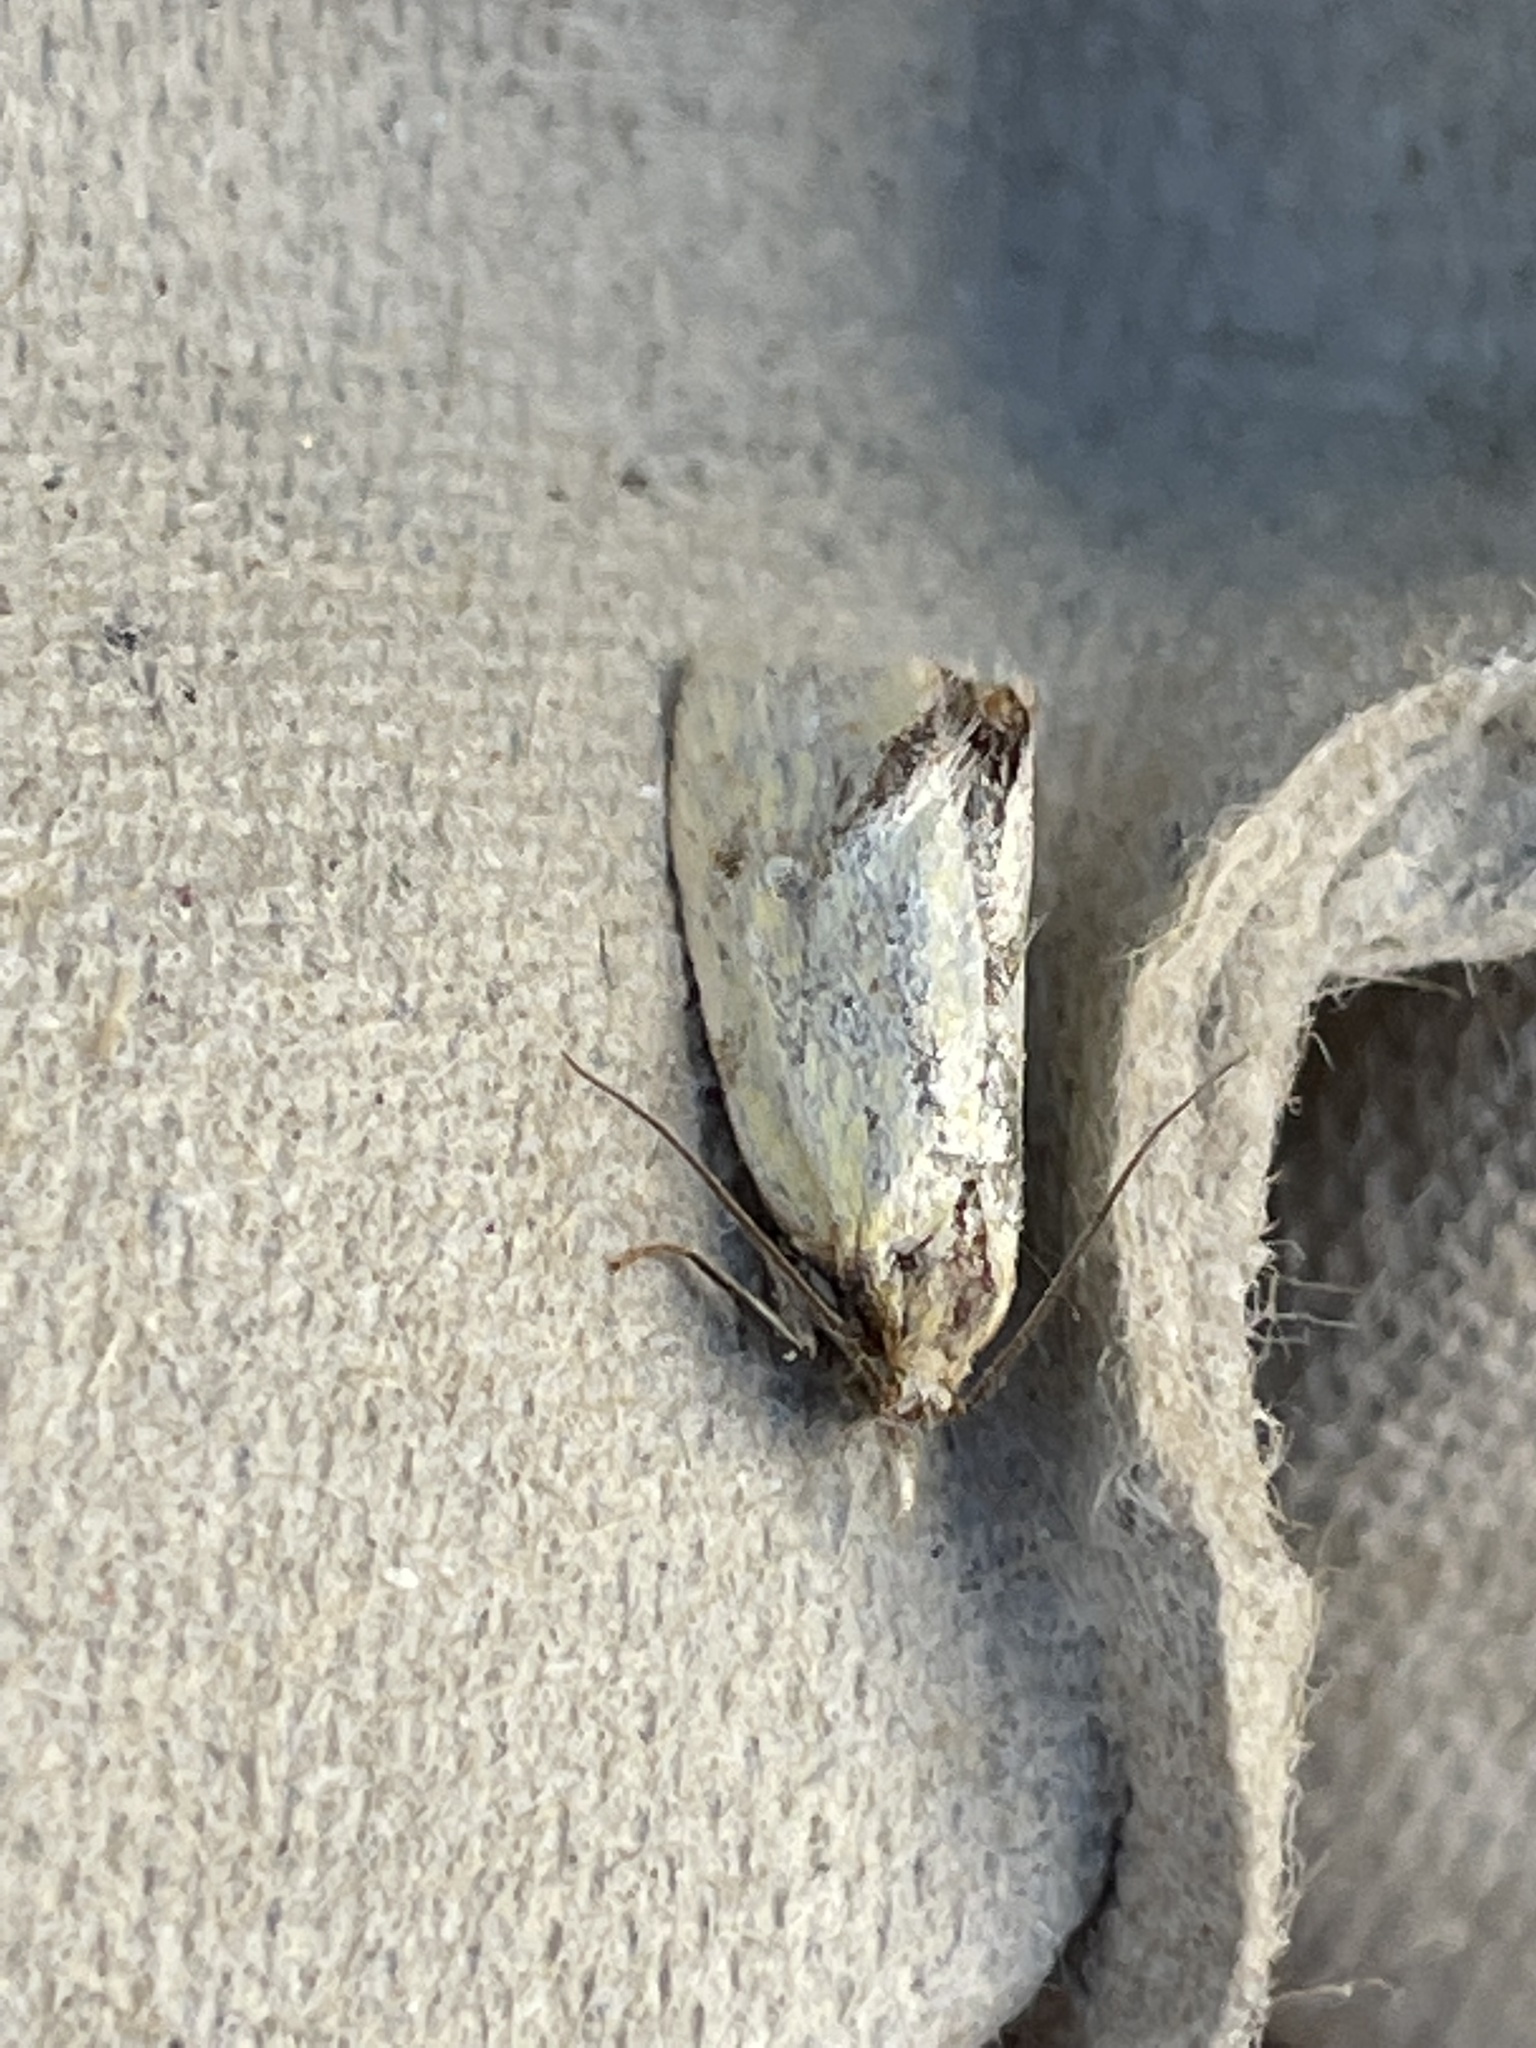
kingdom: Animalia
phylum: Arthropoda
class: Insecta
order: Lepidoptera
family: Tortricidae
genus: Agapeta
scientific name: Agapeta hamana
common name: Common yellow conch
